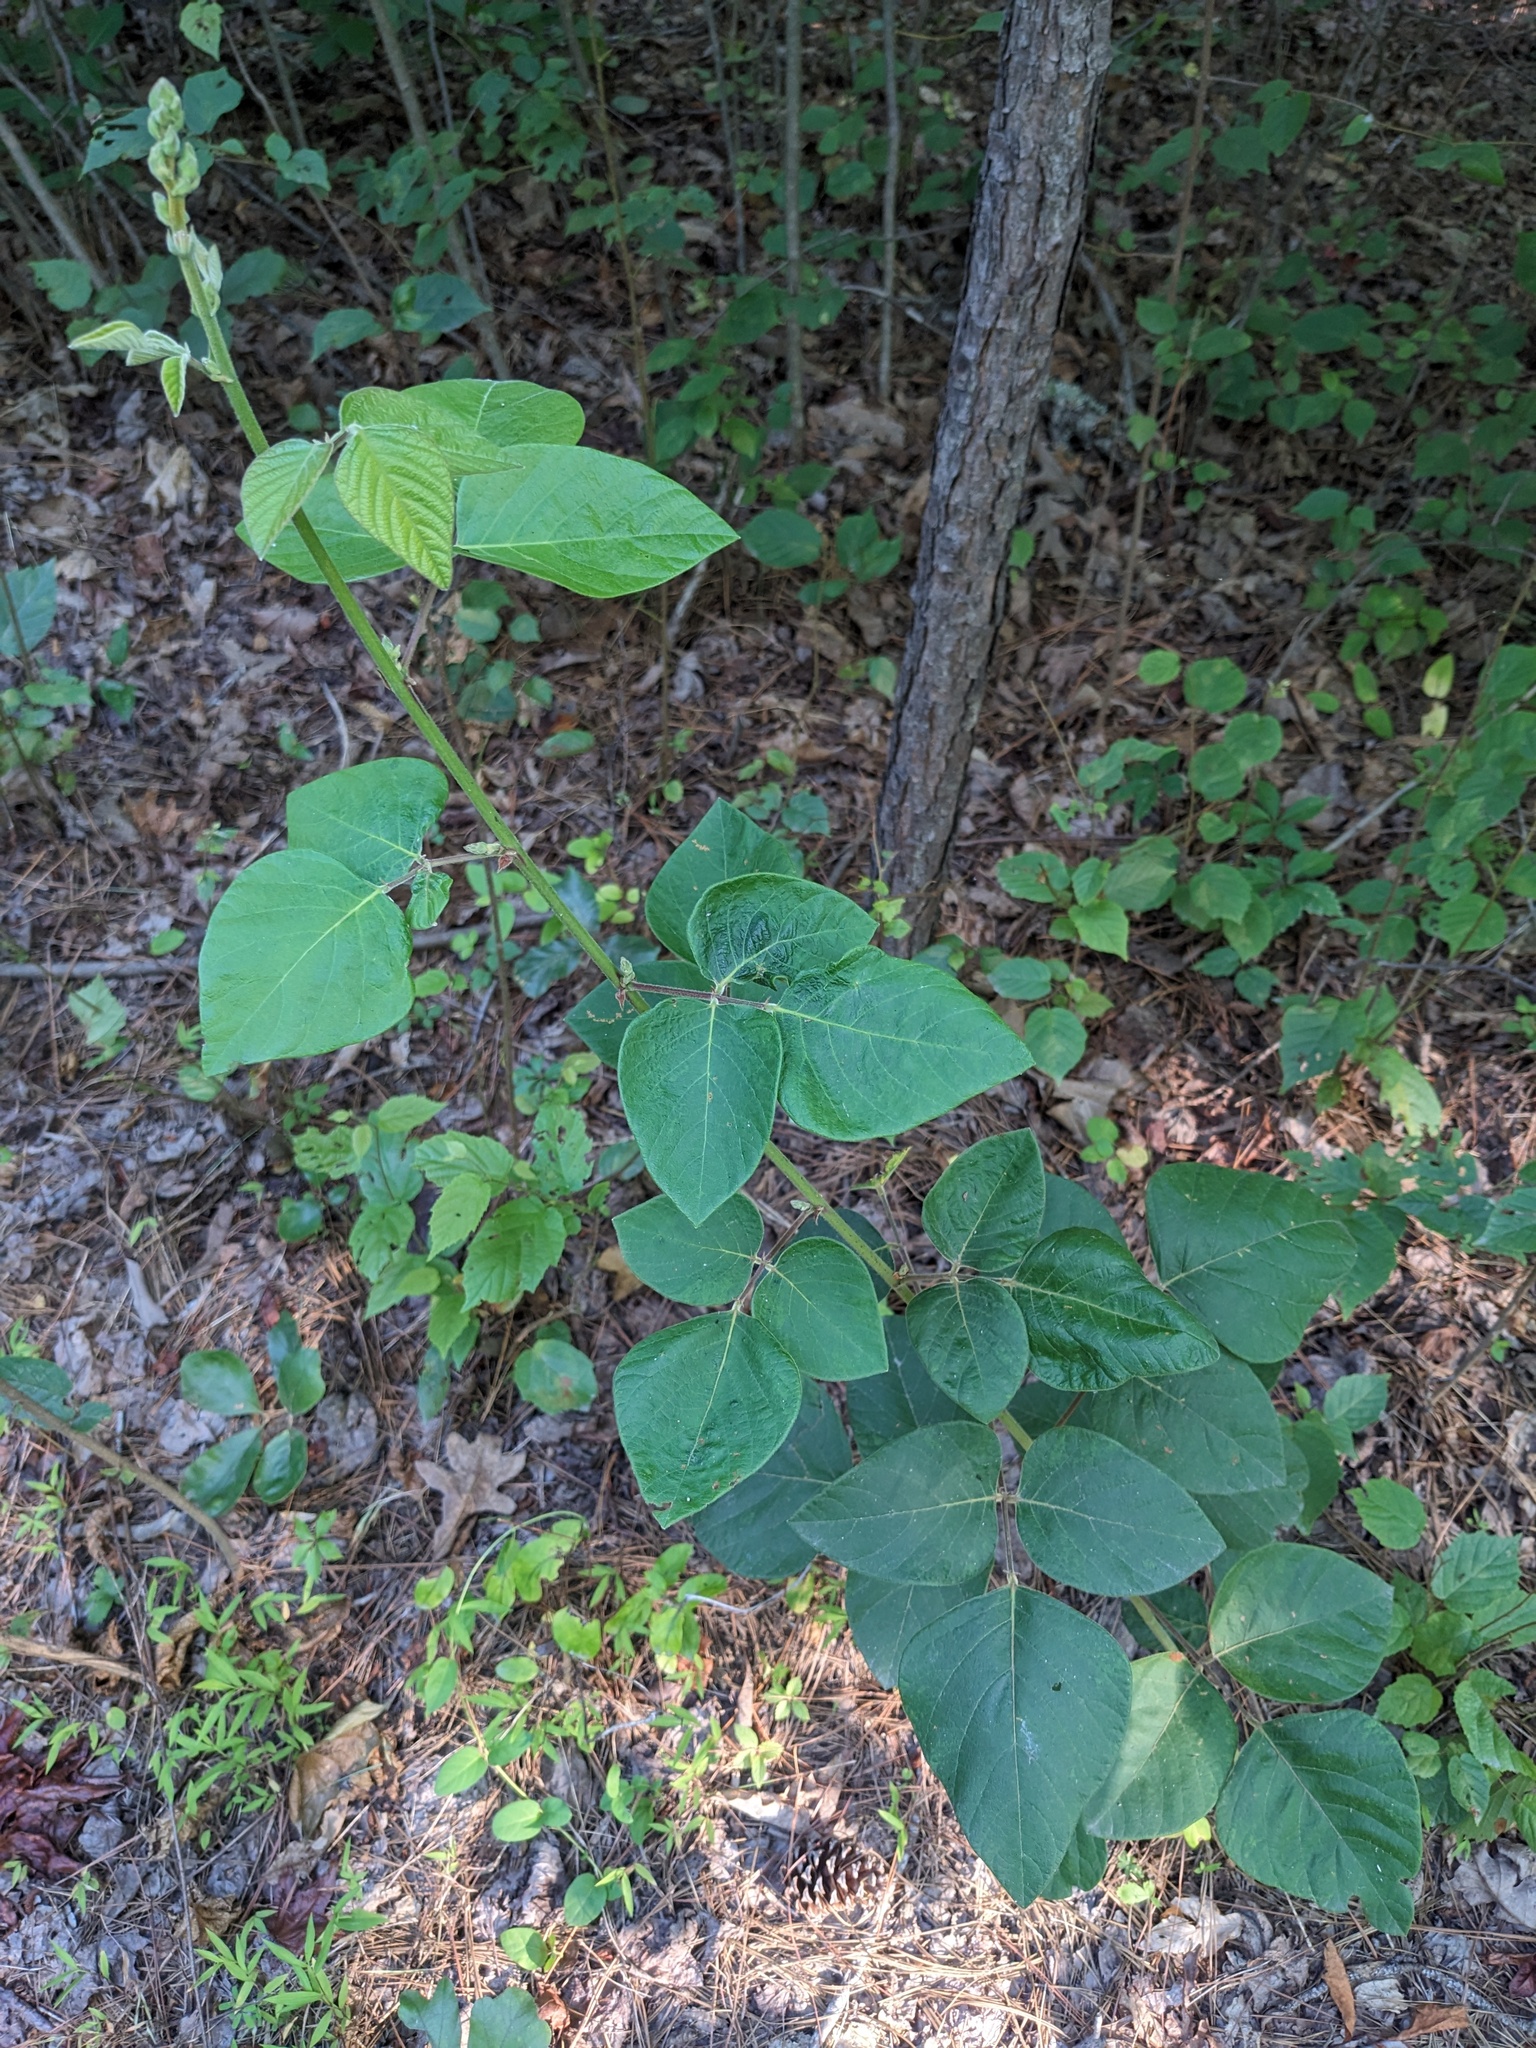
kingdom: Plantae
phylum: Tracheophyta
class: Magnoliopsida
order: Fabales
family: Fabaceae
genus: Desmodium
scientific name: Desmodium viridiflorum
